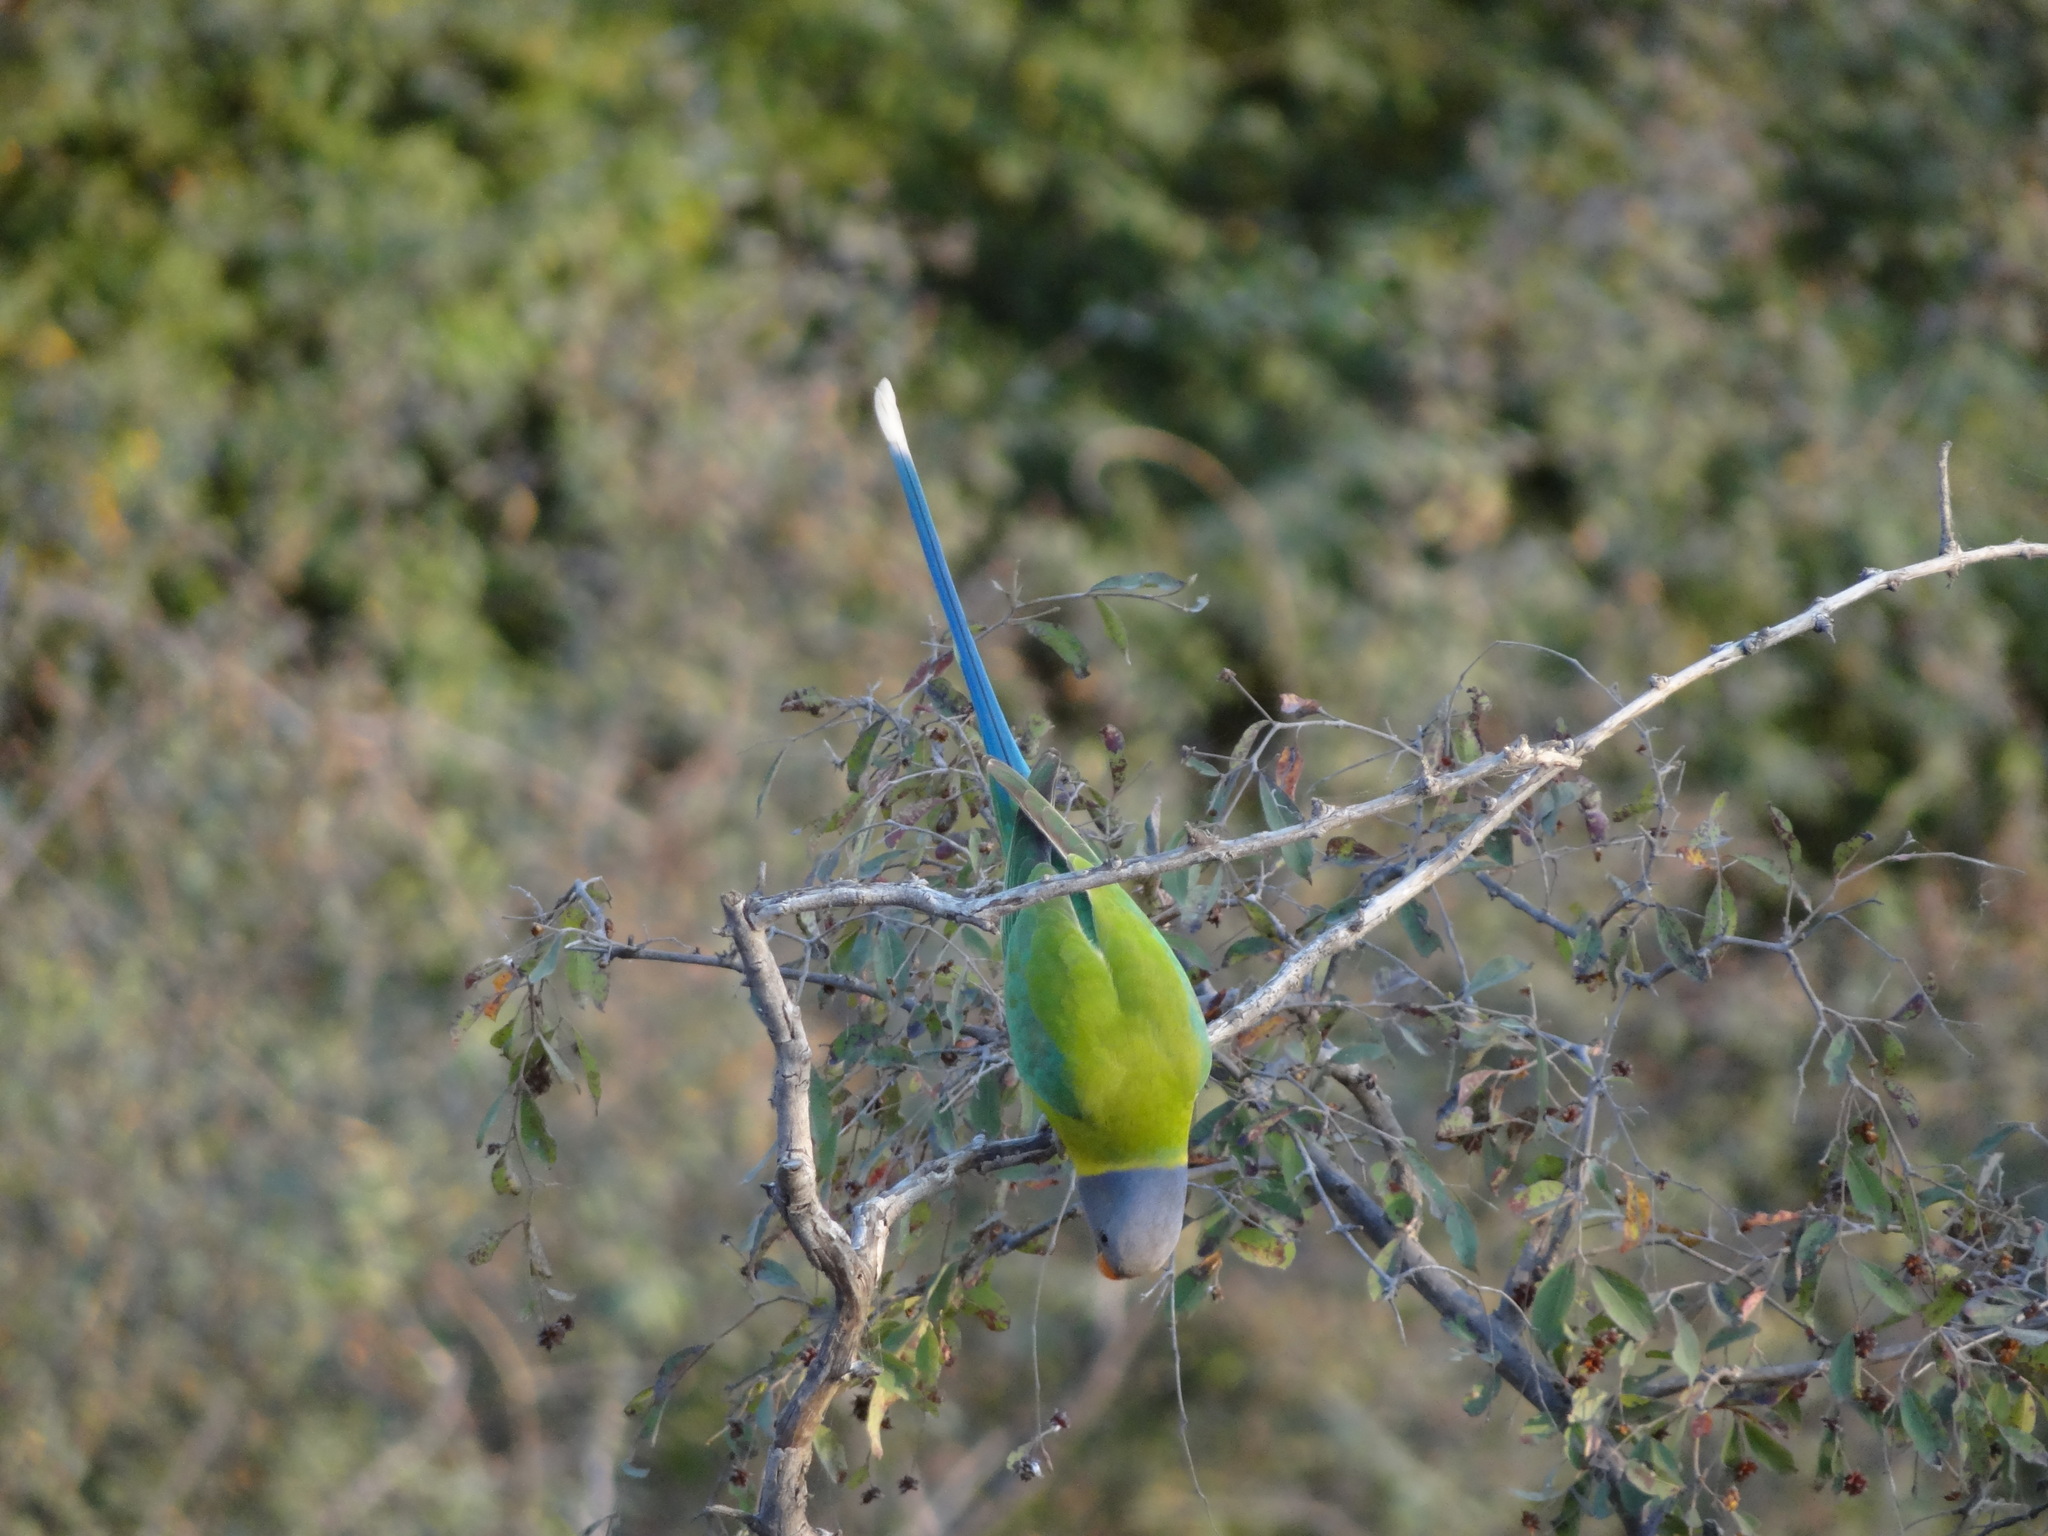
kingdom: Animalia
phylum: Chordata
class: Aves
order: Psittaciformes
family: Psittacidae
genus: Psittacula
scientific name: Psittacula cyanocephala
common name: Plum-headed parakeet
